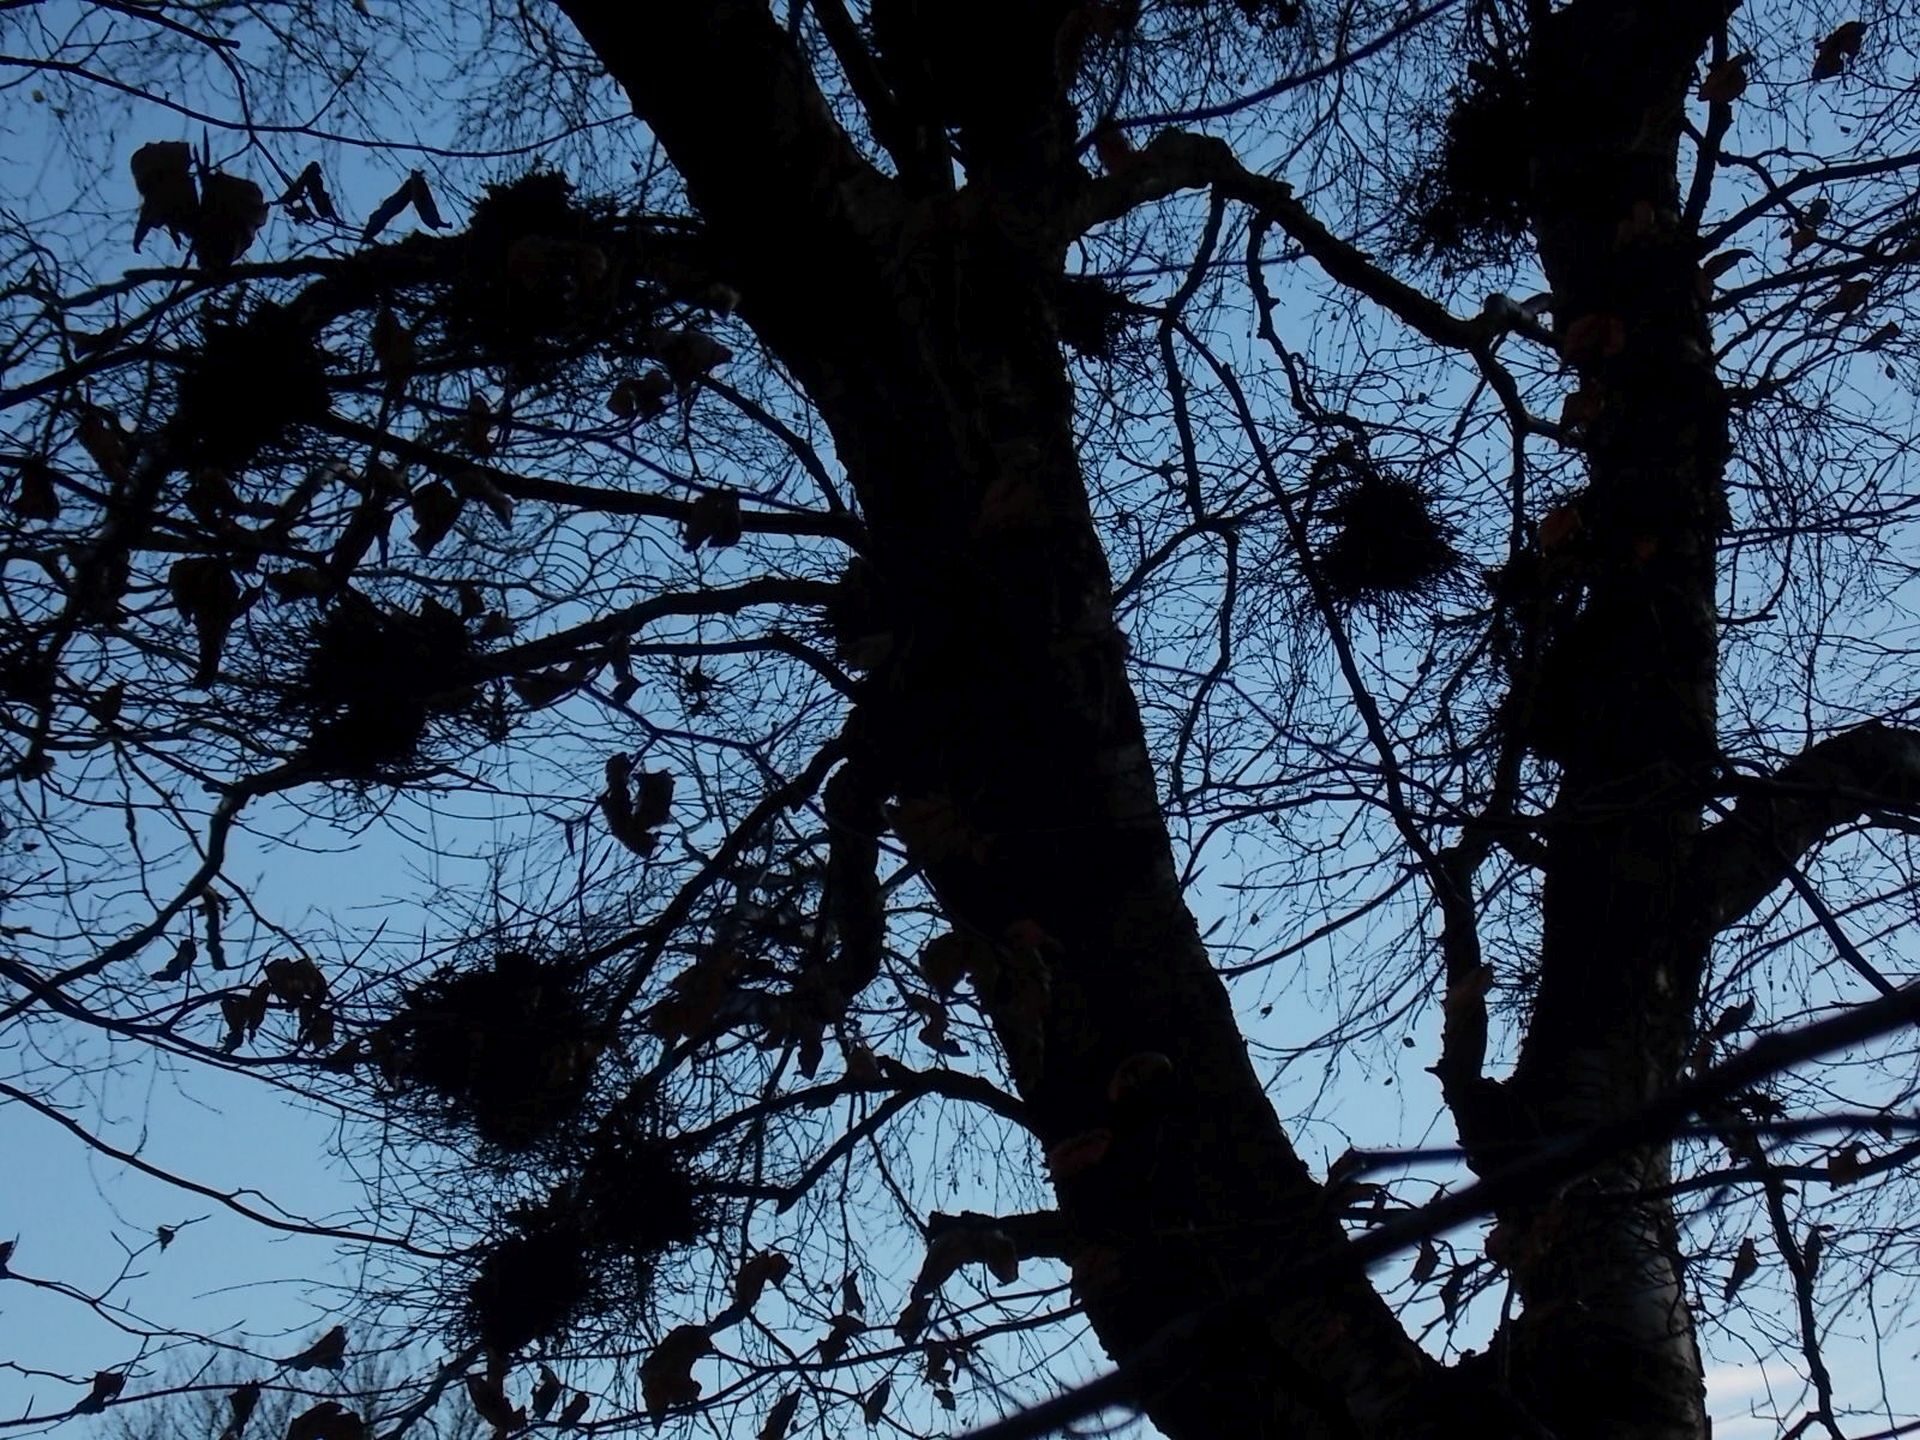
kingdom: Fungi
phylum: Ascomycota
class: Taphrinomycetes
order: Taphrinales
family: Taphrinaceae
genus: Taphrina
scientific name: Taphrina betulina
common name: Birch besom
